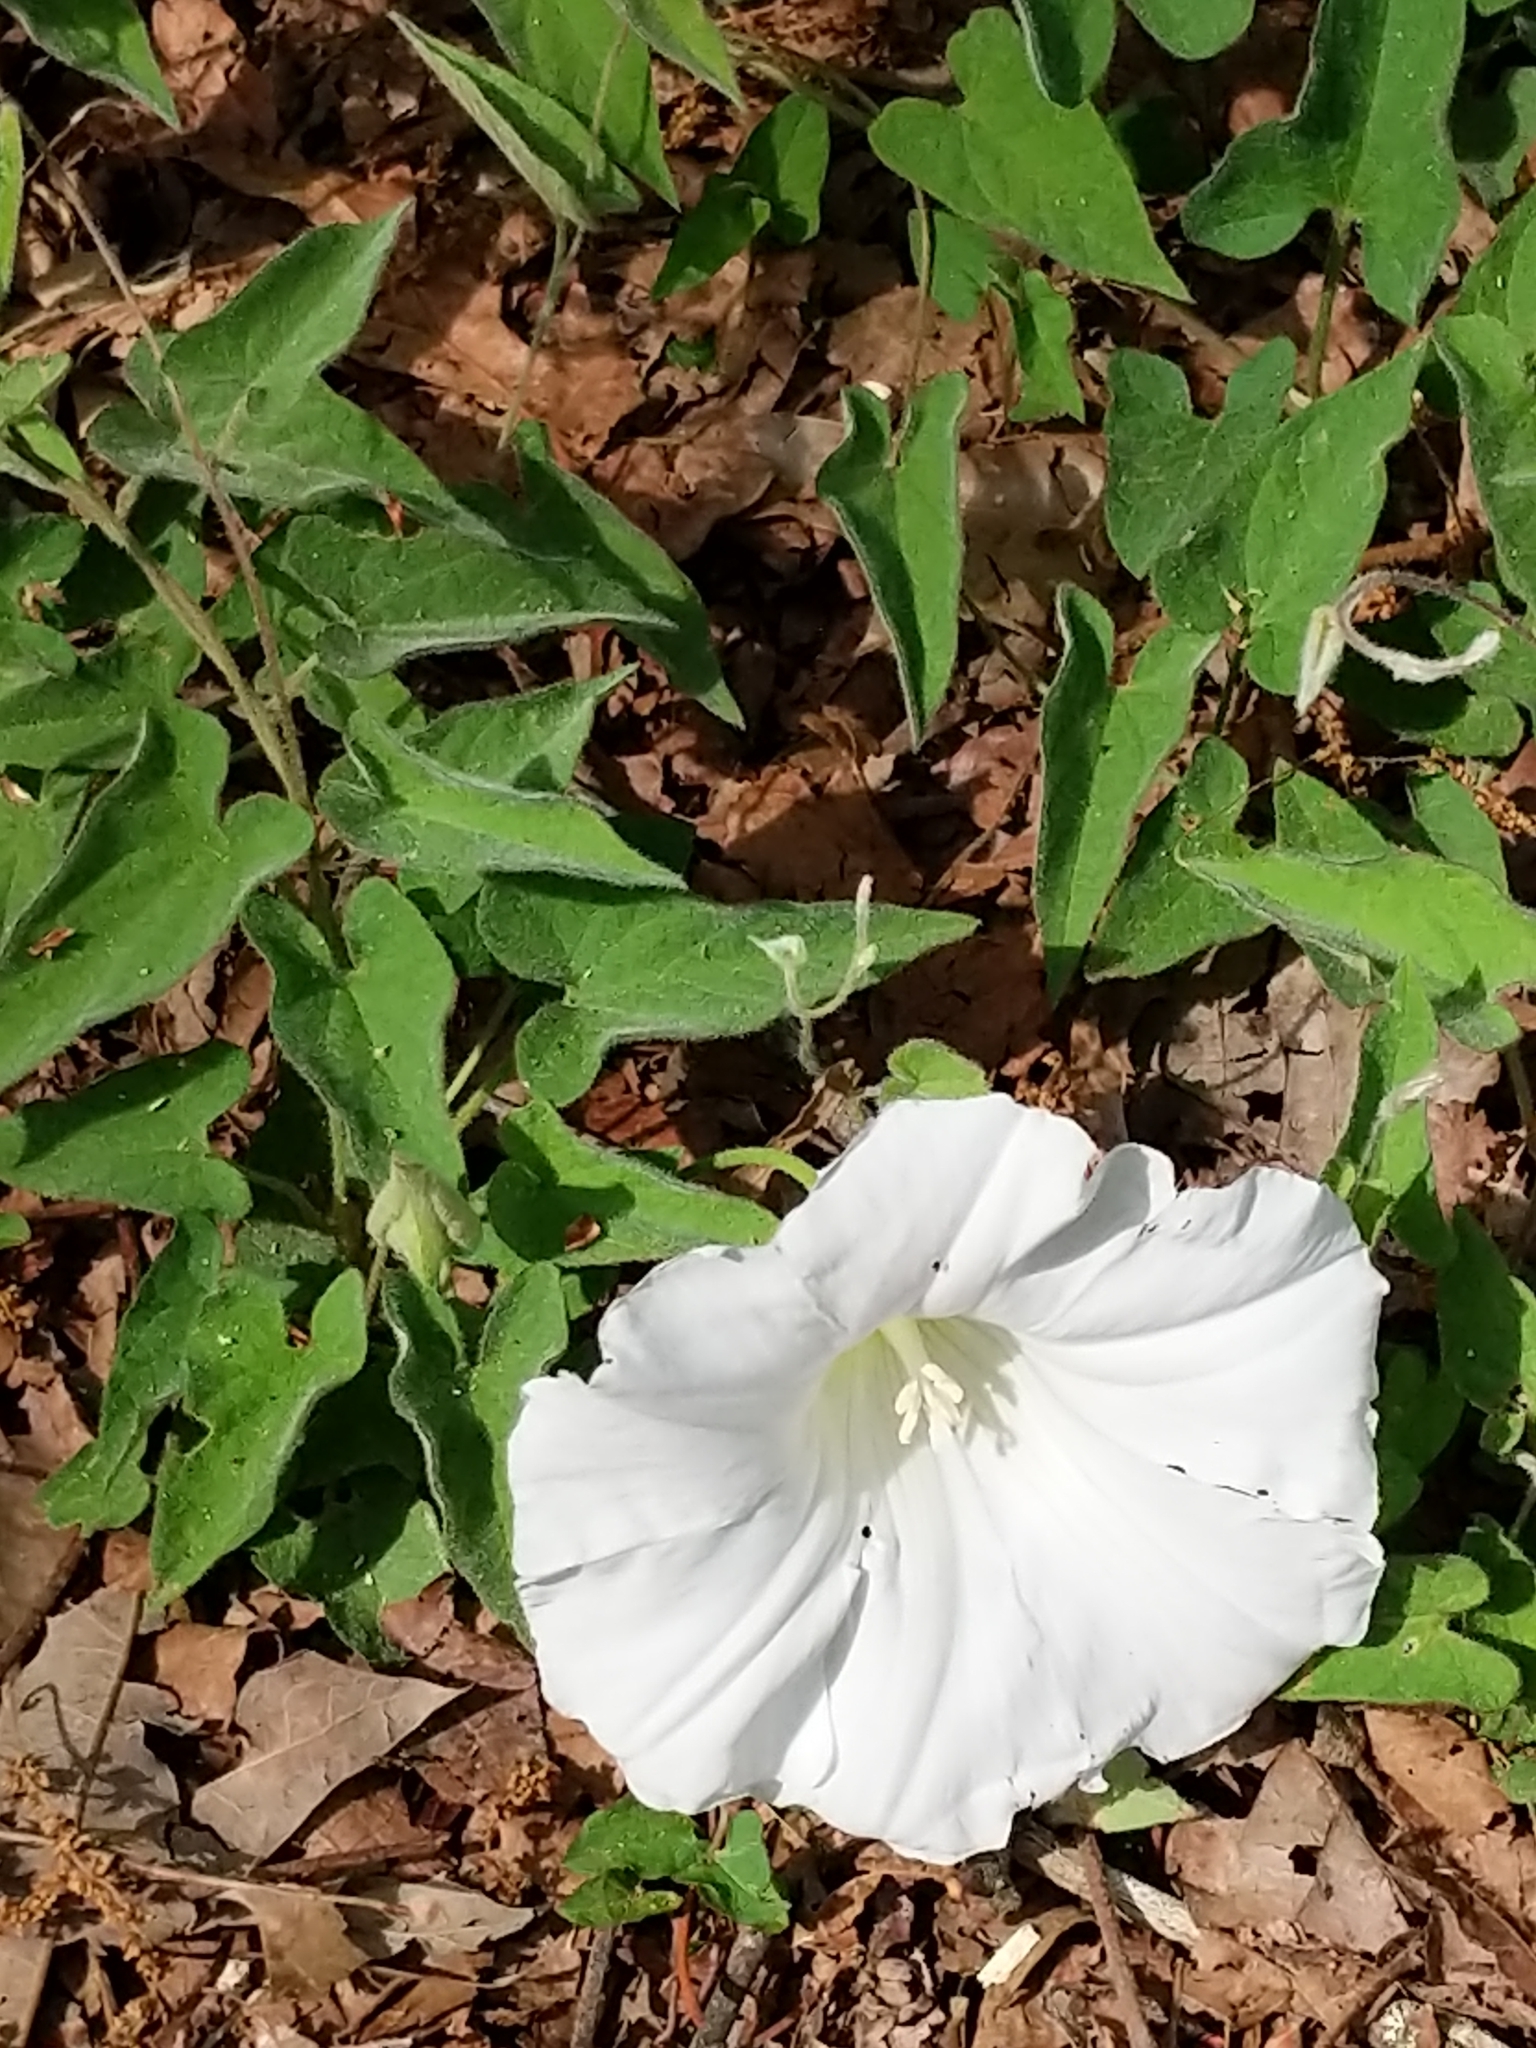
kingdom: Plantae
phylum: Tracheophyta
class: Magnoliopsida
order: Solanales
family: Convolvulaceae
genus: Calystegia
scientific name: Calystegia catesbeiana
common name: Catesby's false bindweed
